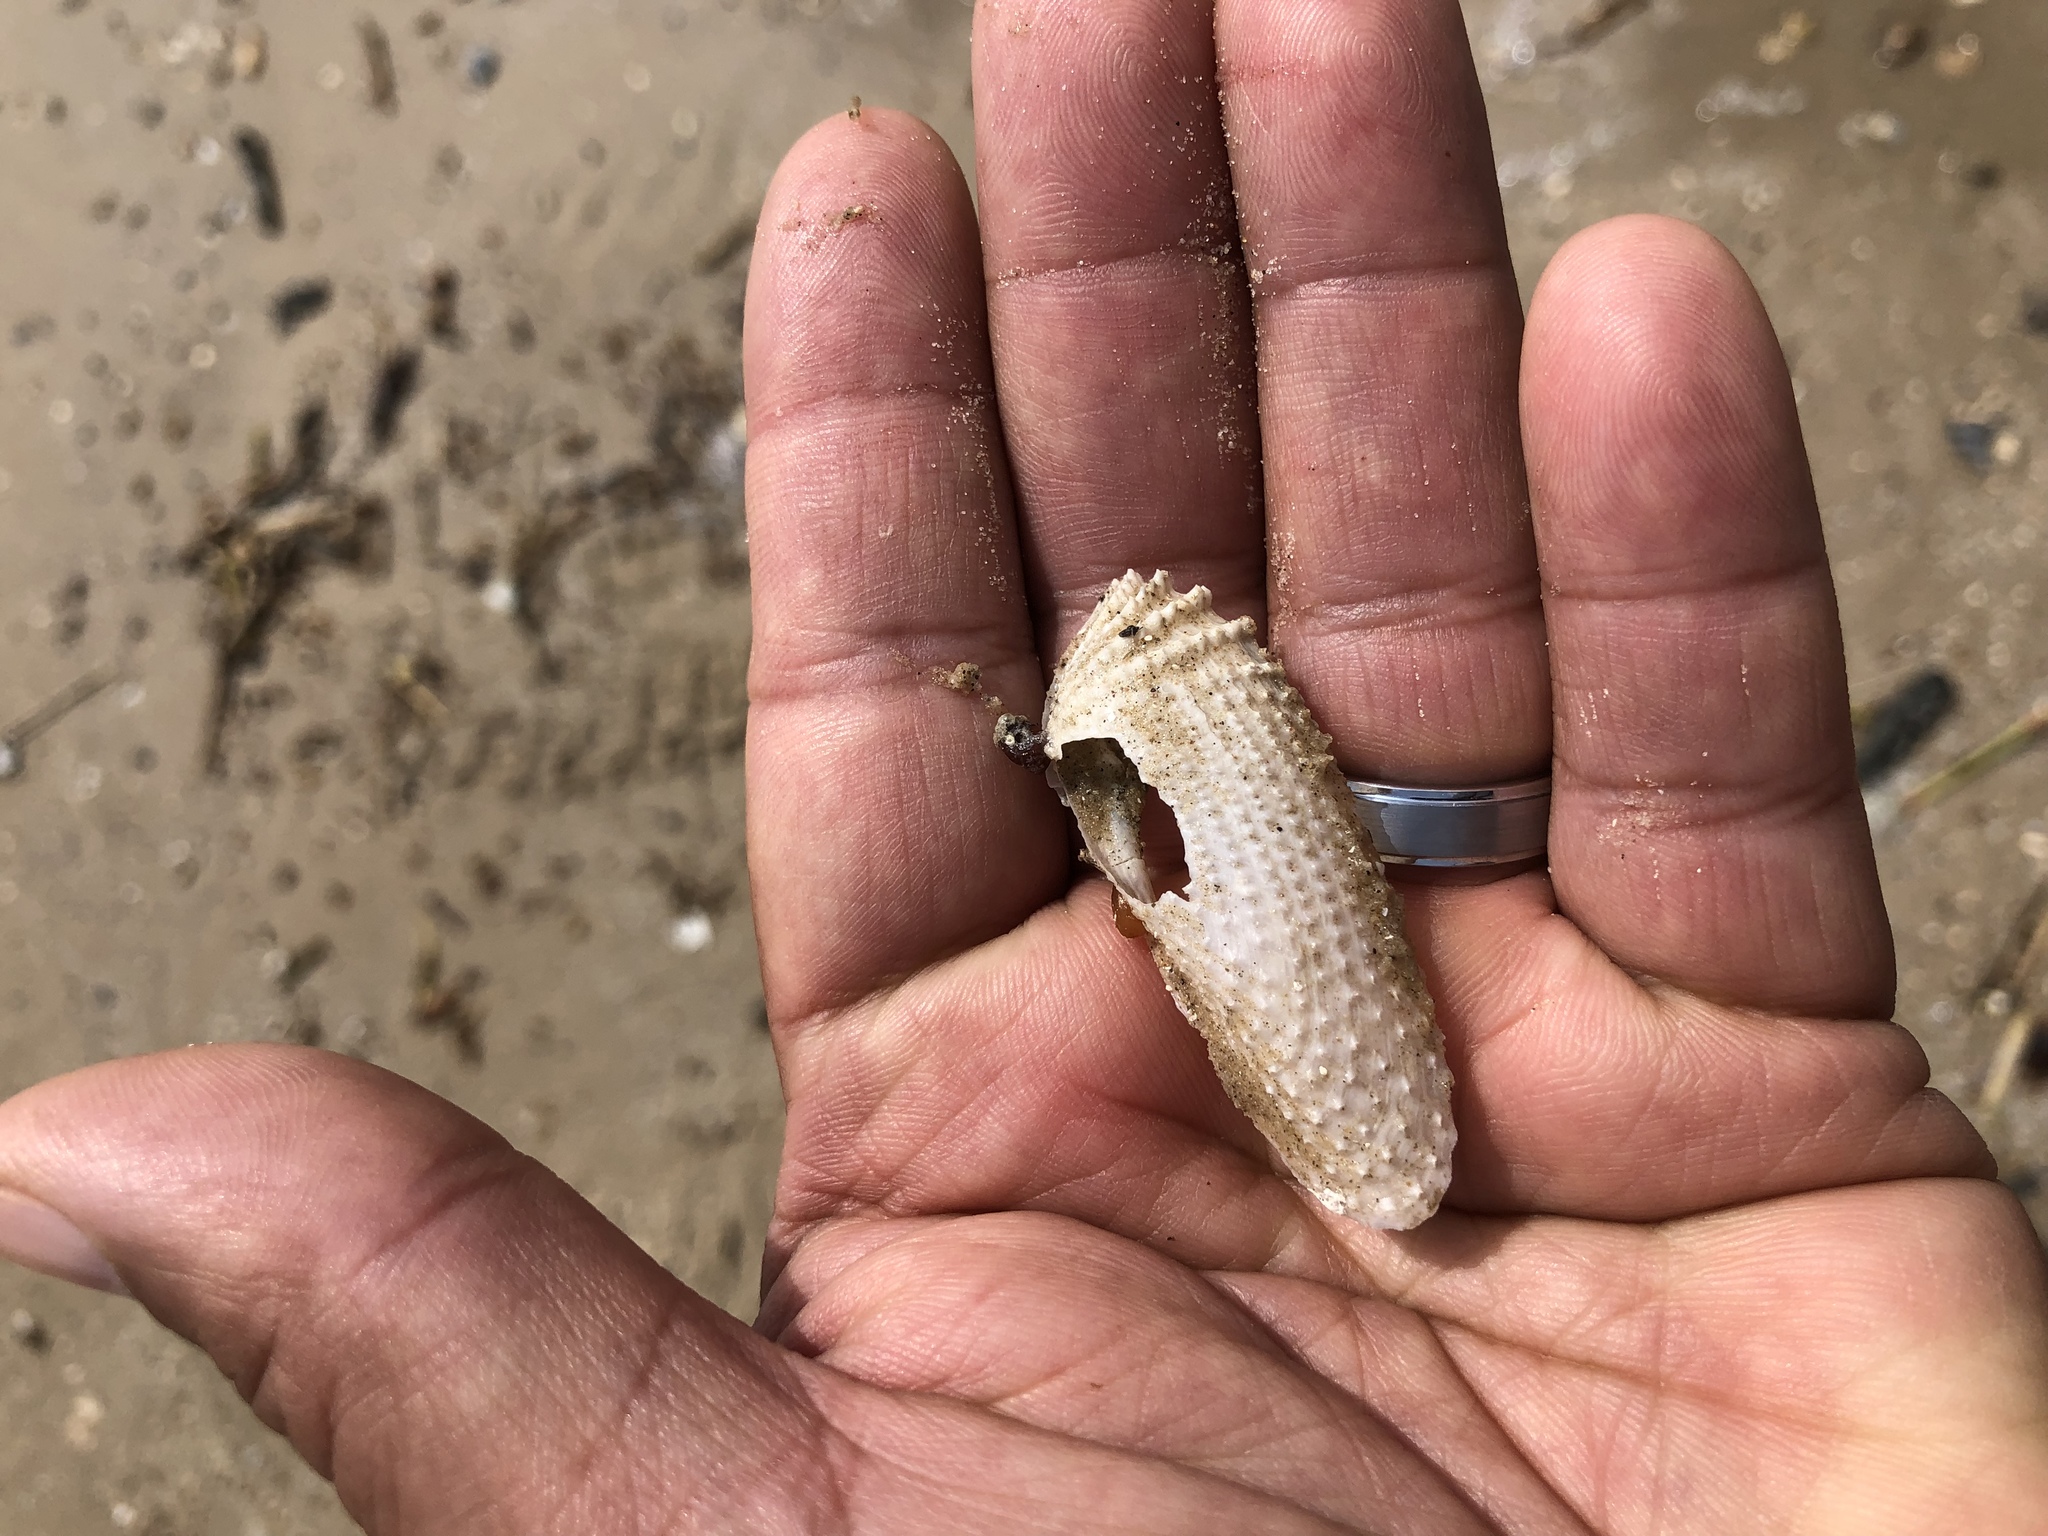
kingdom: Animalia
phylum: Mollusca
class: Bivalvia
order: Myida
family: Pholadidae
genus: Cyrtopleura
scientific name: Cyrtopleura costata
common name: Angel wing
